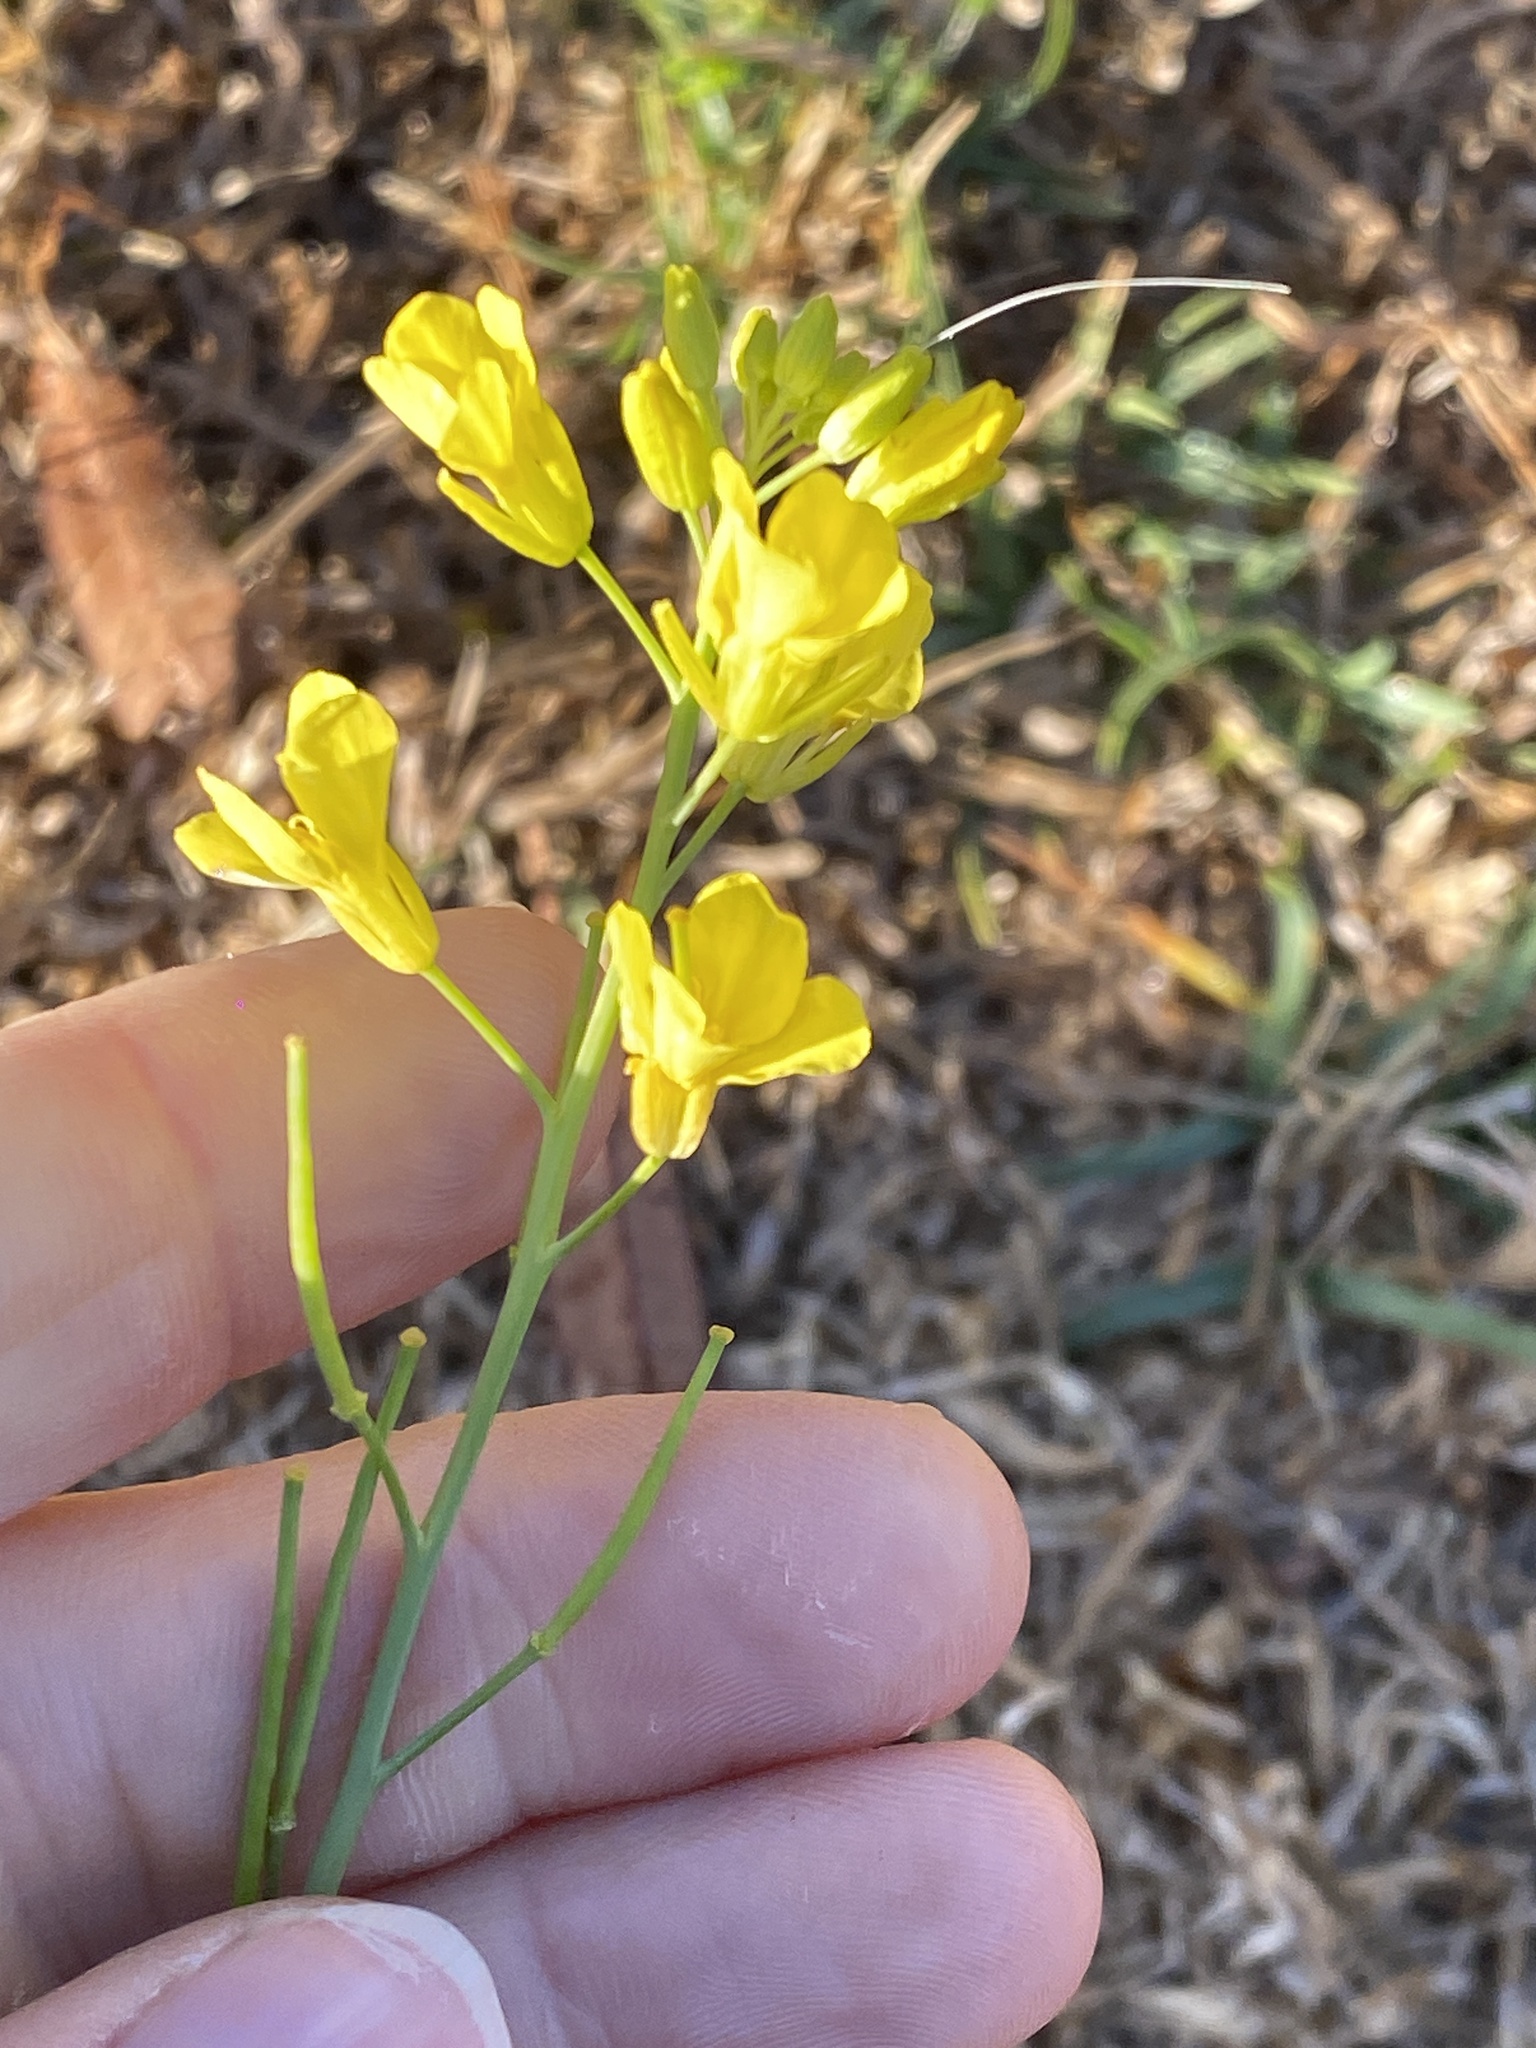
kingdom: Plantae
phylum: Tracheophyta
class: Magnoliopsida
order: Brassicales
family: Brassicaceae
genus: Brassica
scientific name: Brassica juncea
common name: Brown mustard
